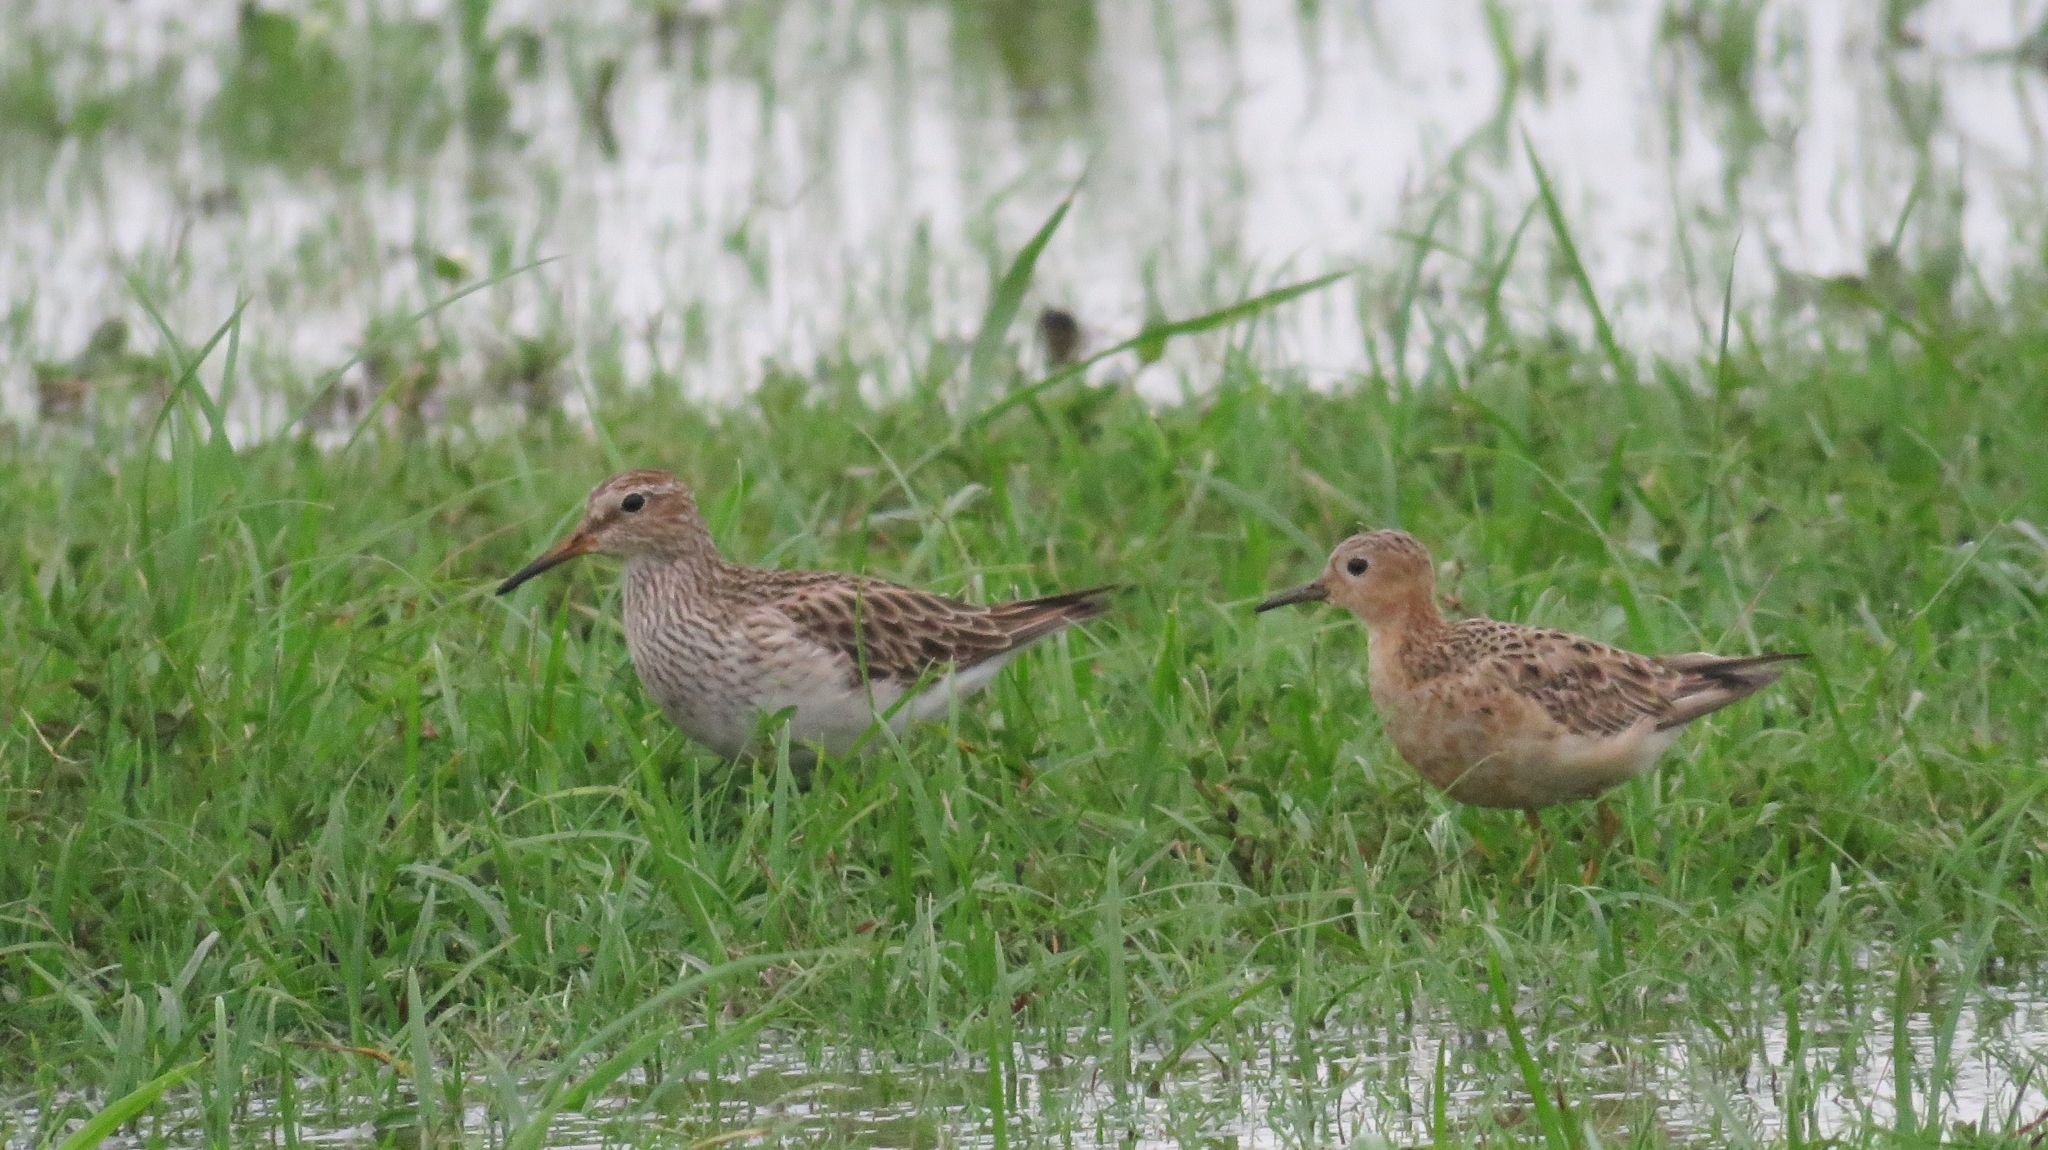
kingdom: Animalia
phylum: Chordata
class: Aves
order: Charadriiformes
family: Scolopacidae
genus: Calidris
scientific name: Calidris melanotos
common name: Pectoral sandpiper
